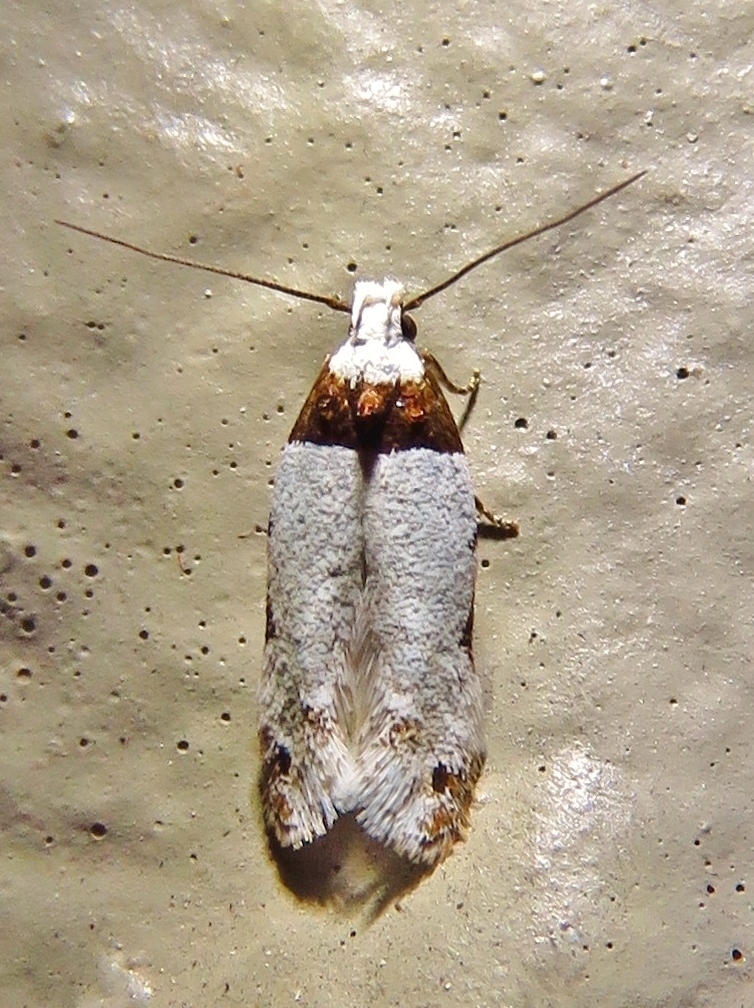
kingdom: Animalia
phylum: Arthropoda
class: Insecta
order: Lepidoptera
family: Gelechiidae
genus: Rifseria
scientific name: Rifseria fuscotaeniaella
